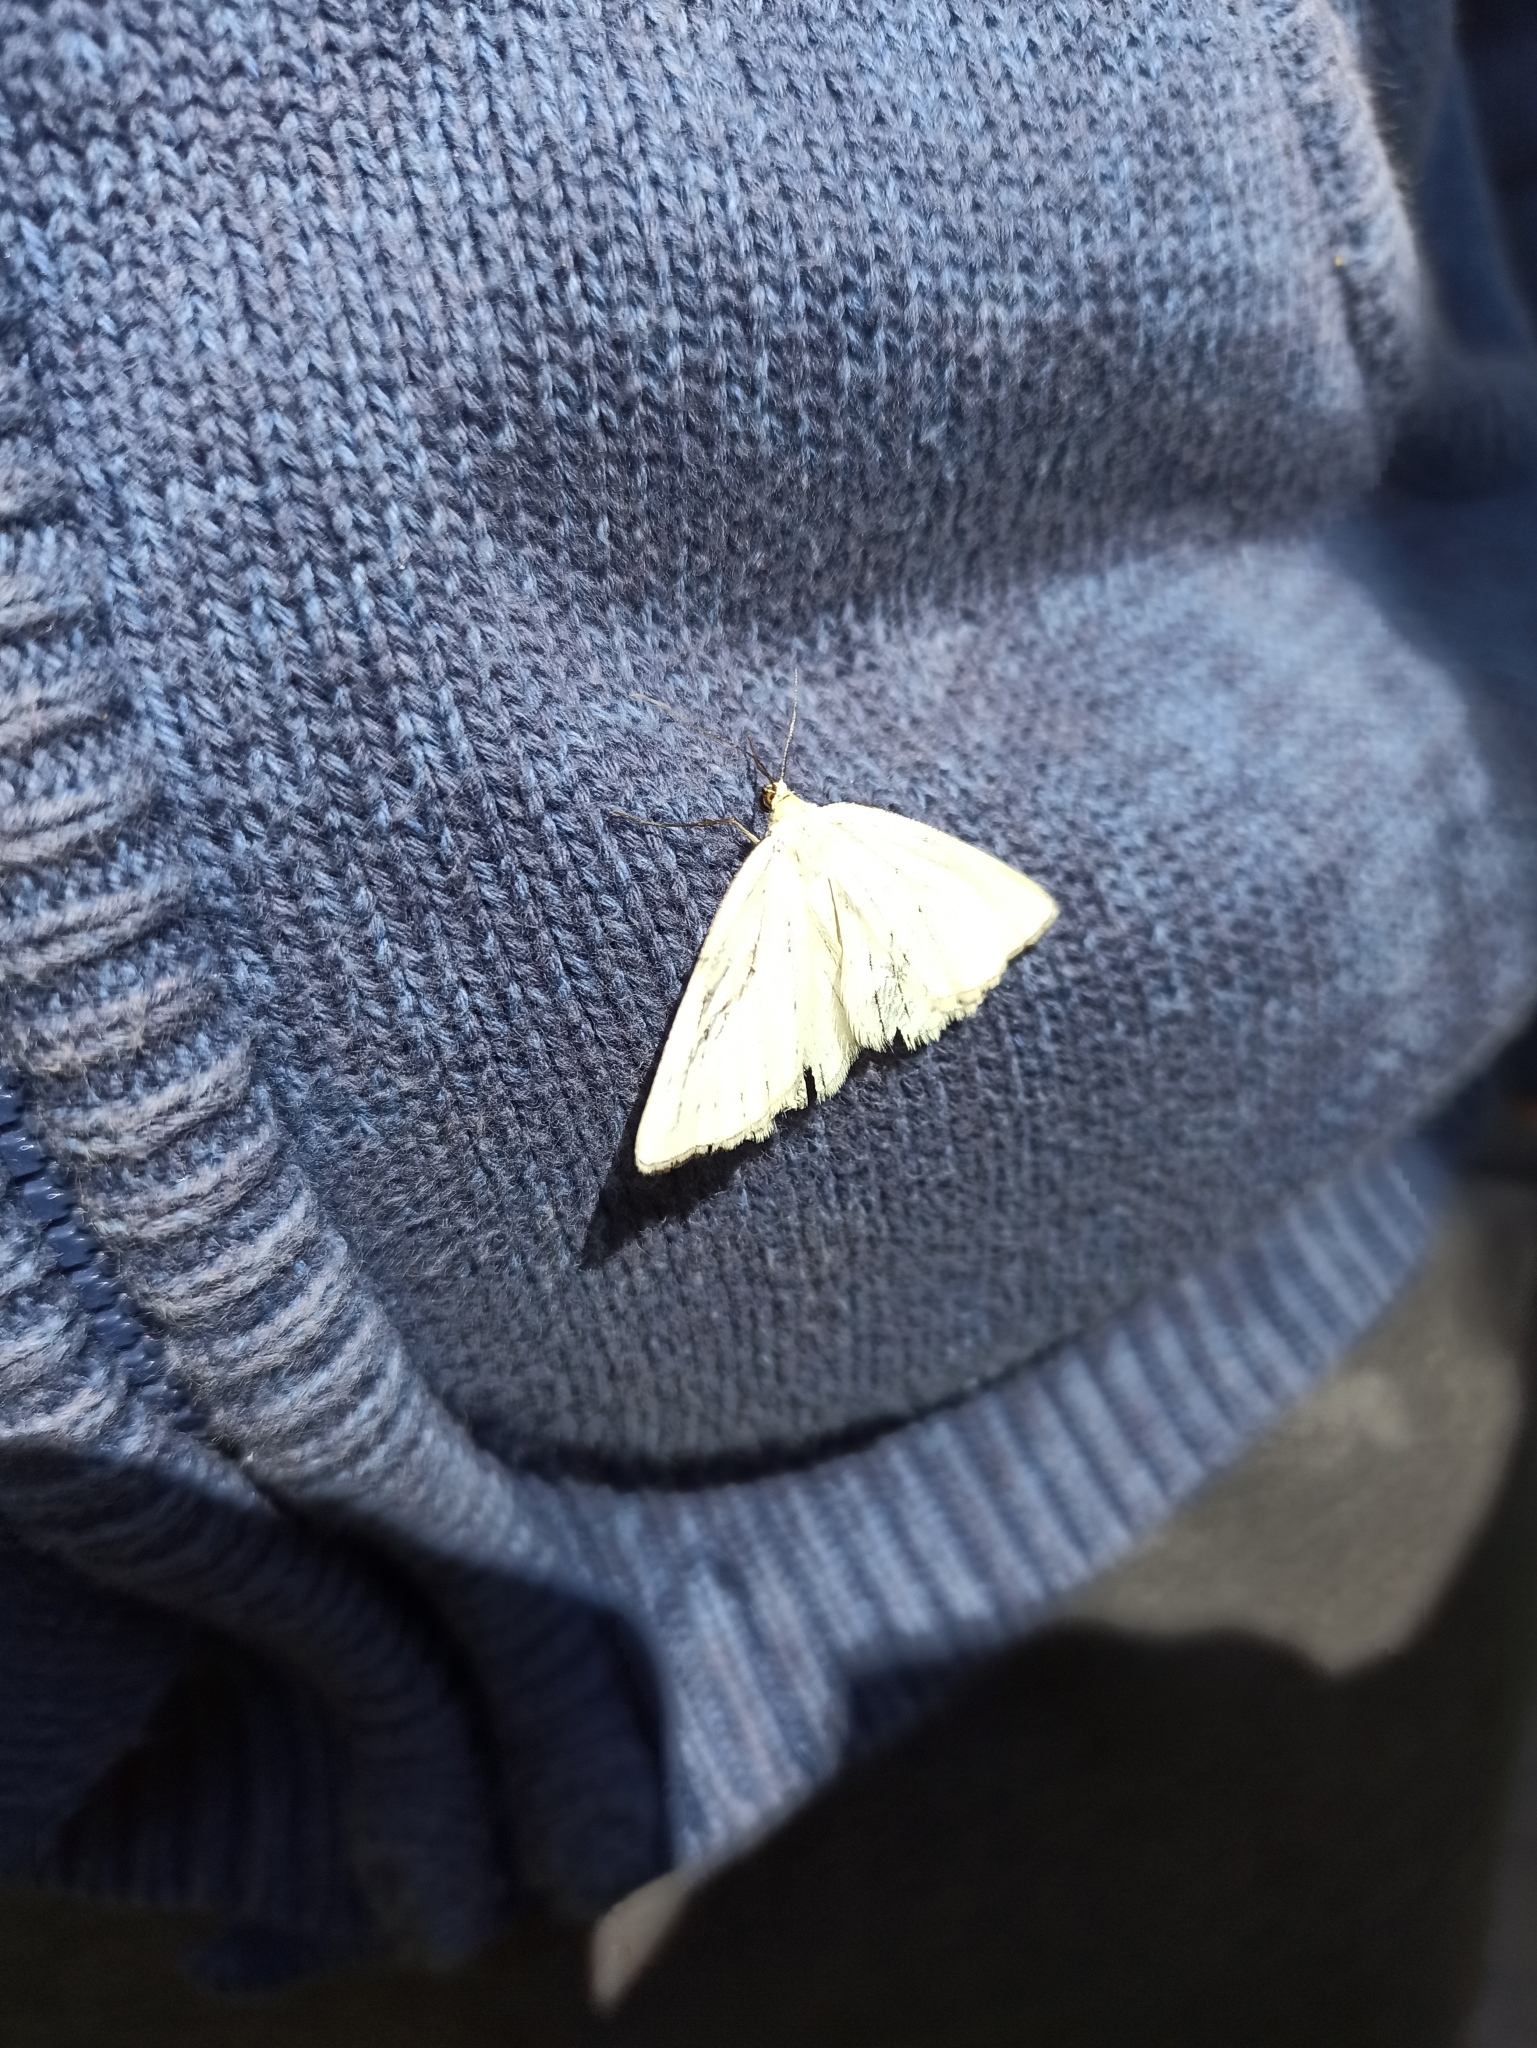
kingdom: Animalia
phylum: Arthropoda
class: Insecta
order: Lepidoptera
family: Geometridae
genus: Siona
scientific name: Siona lineata
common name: Black-veined moth
